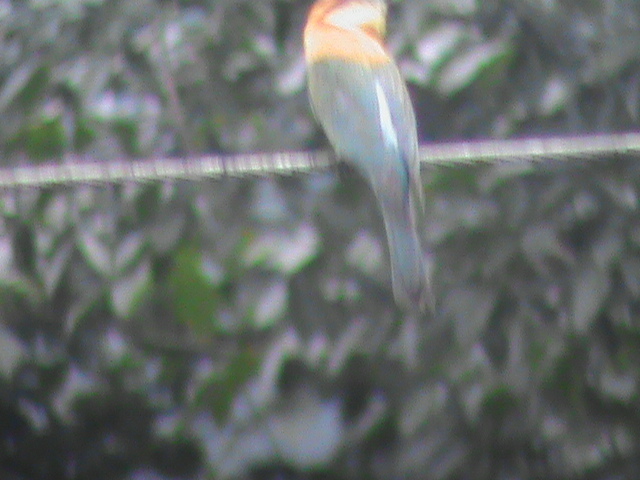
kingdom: Animalia
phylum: Chordata
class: Aves
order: Coraciiformes
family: Meropidae
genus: Merops
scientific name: Merops leschenaulti
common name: Chestnut-headed bee-eater
